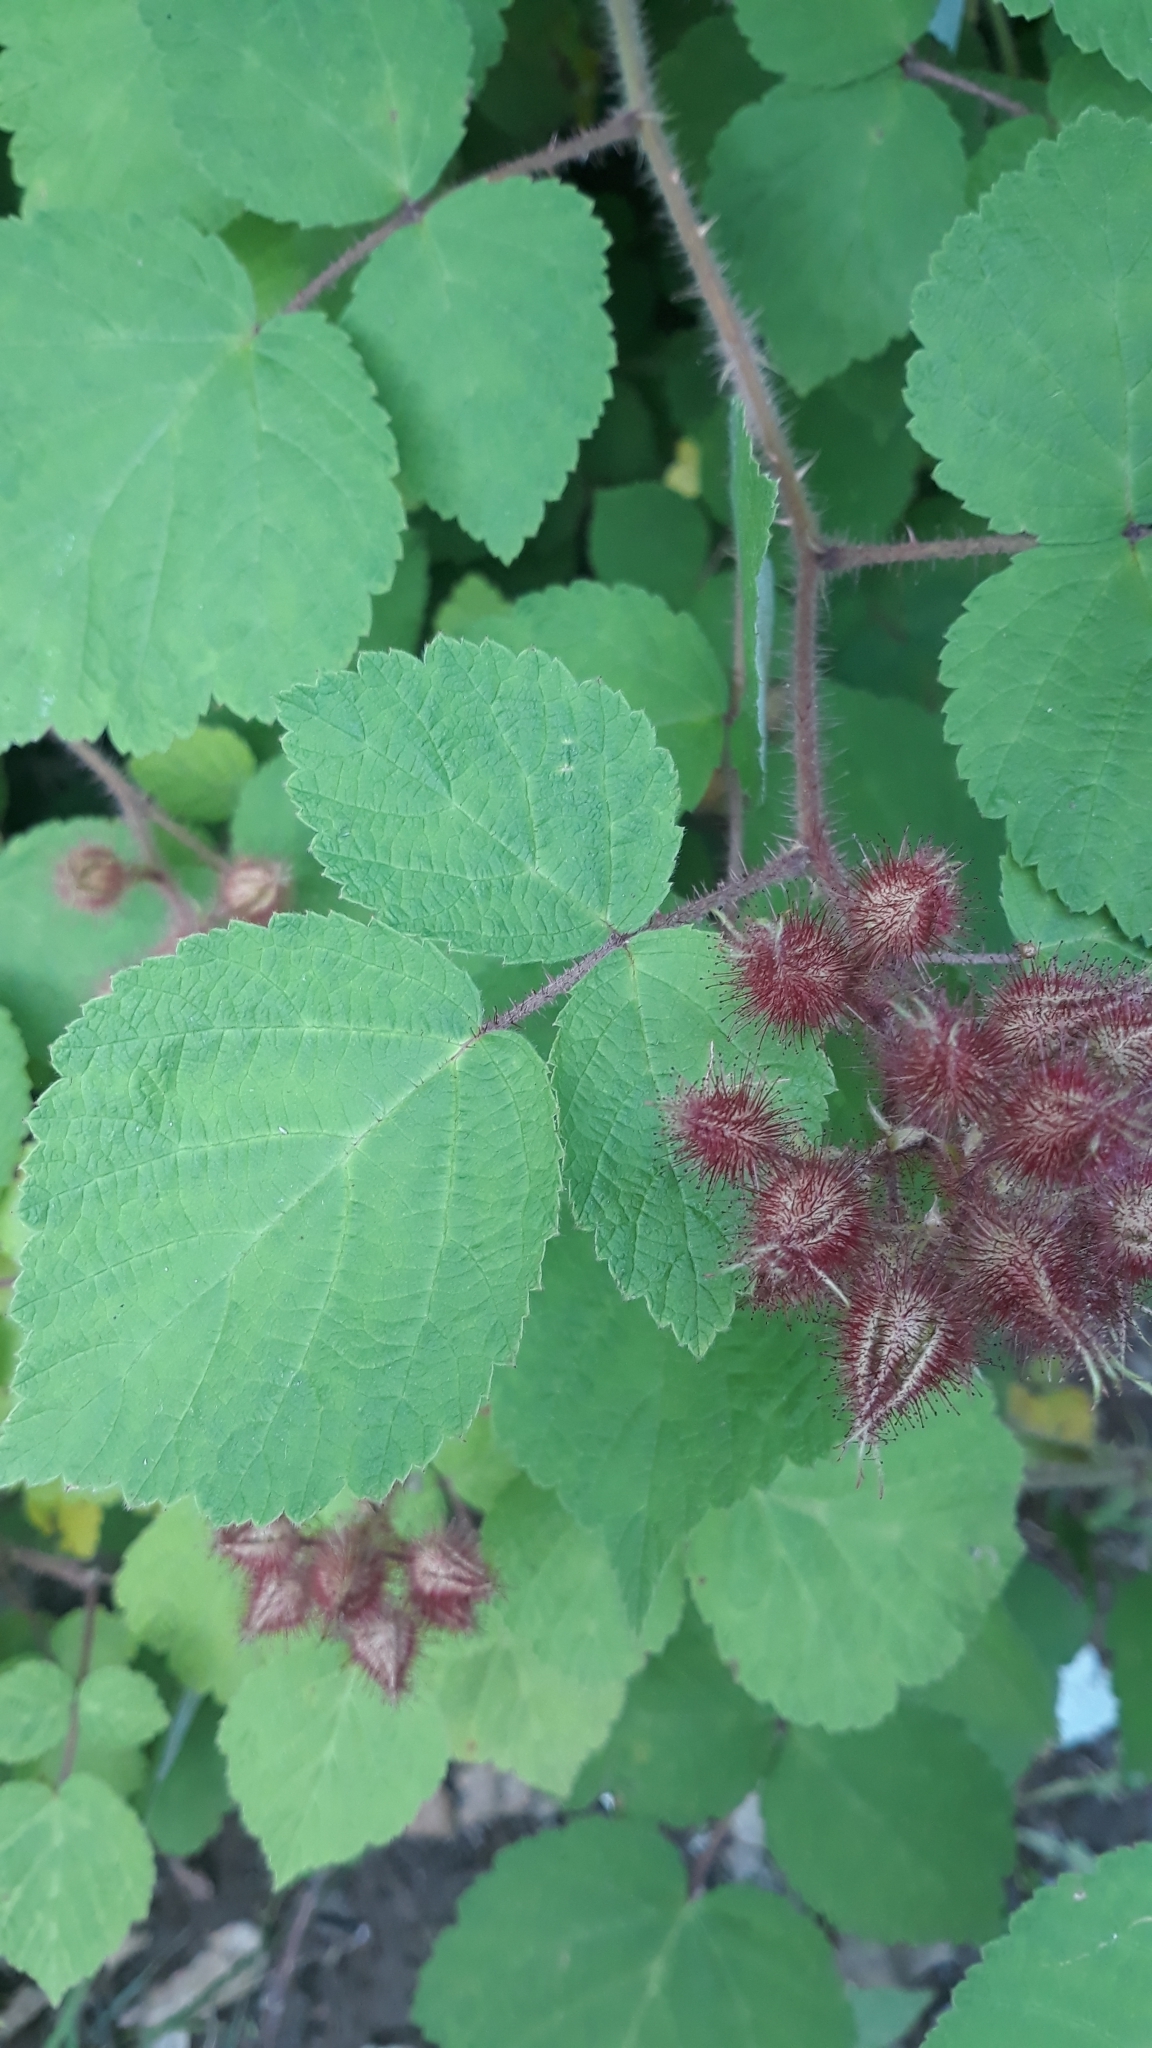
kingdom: Plantae
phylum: Tracheophyta
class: Magnoliopsida
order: Rosales
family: Rosaceae
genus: Rubus
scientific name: Rubus phoenicolasius
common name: Japanese wineberry
